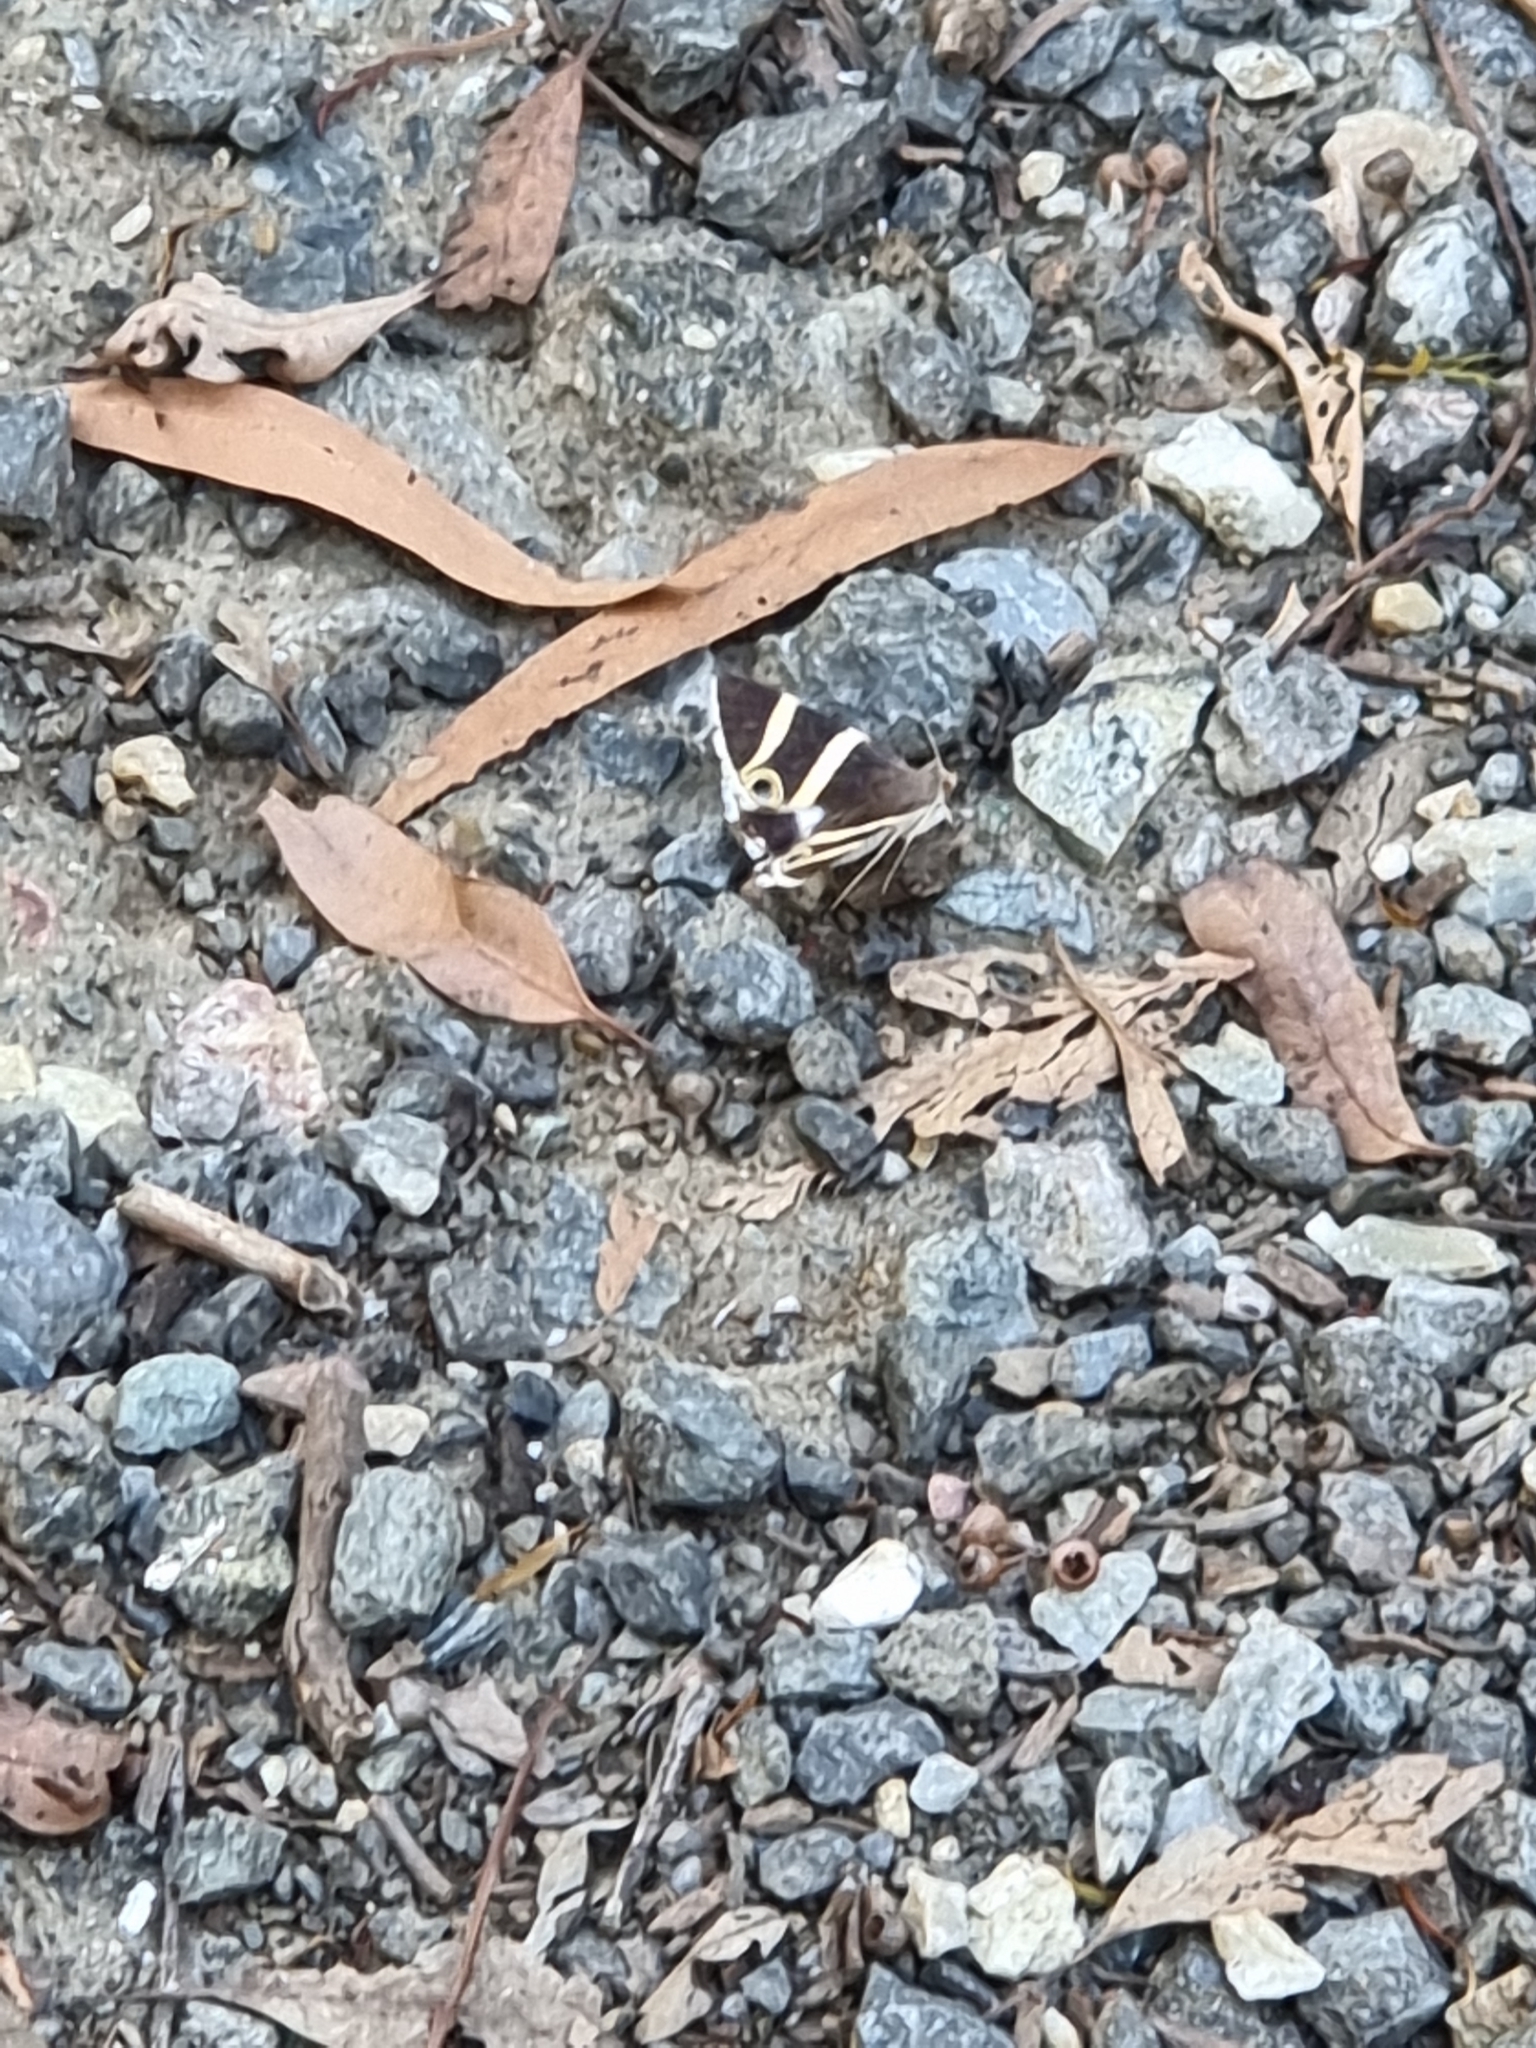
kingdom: Animalia
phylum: Arthropoda
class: Insecta
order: Lepidoptera
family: Erebidae
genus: Grammodes
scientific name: Grammodes ocellata
